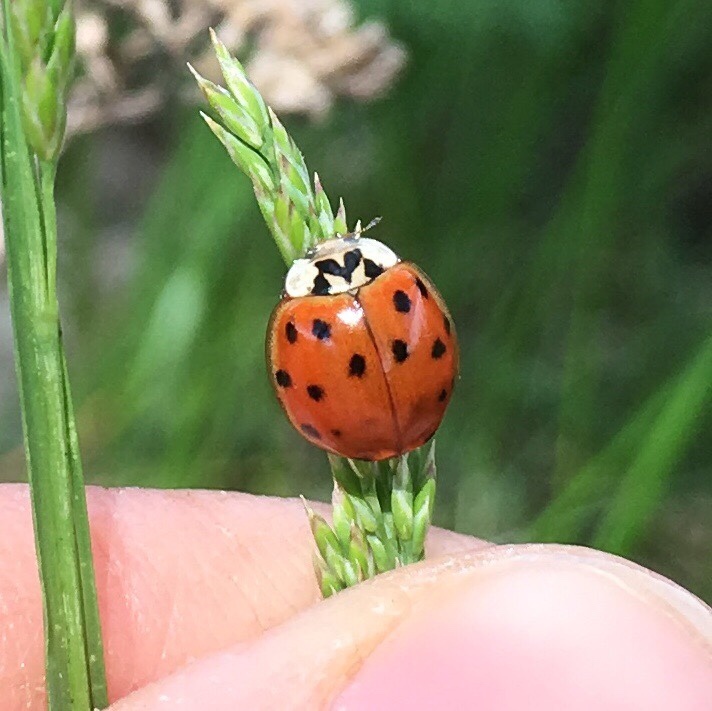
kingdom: Animalia
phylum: Arthropoda
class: Insecta
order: Coleoptera
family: Coccinellidae
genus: Harmonia
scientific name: Harmonia axyridis
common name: Harlequin ladybird
